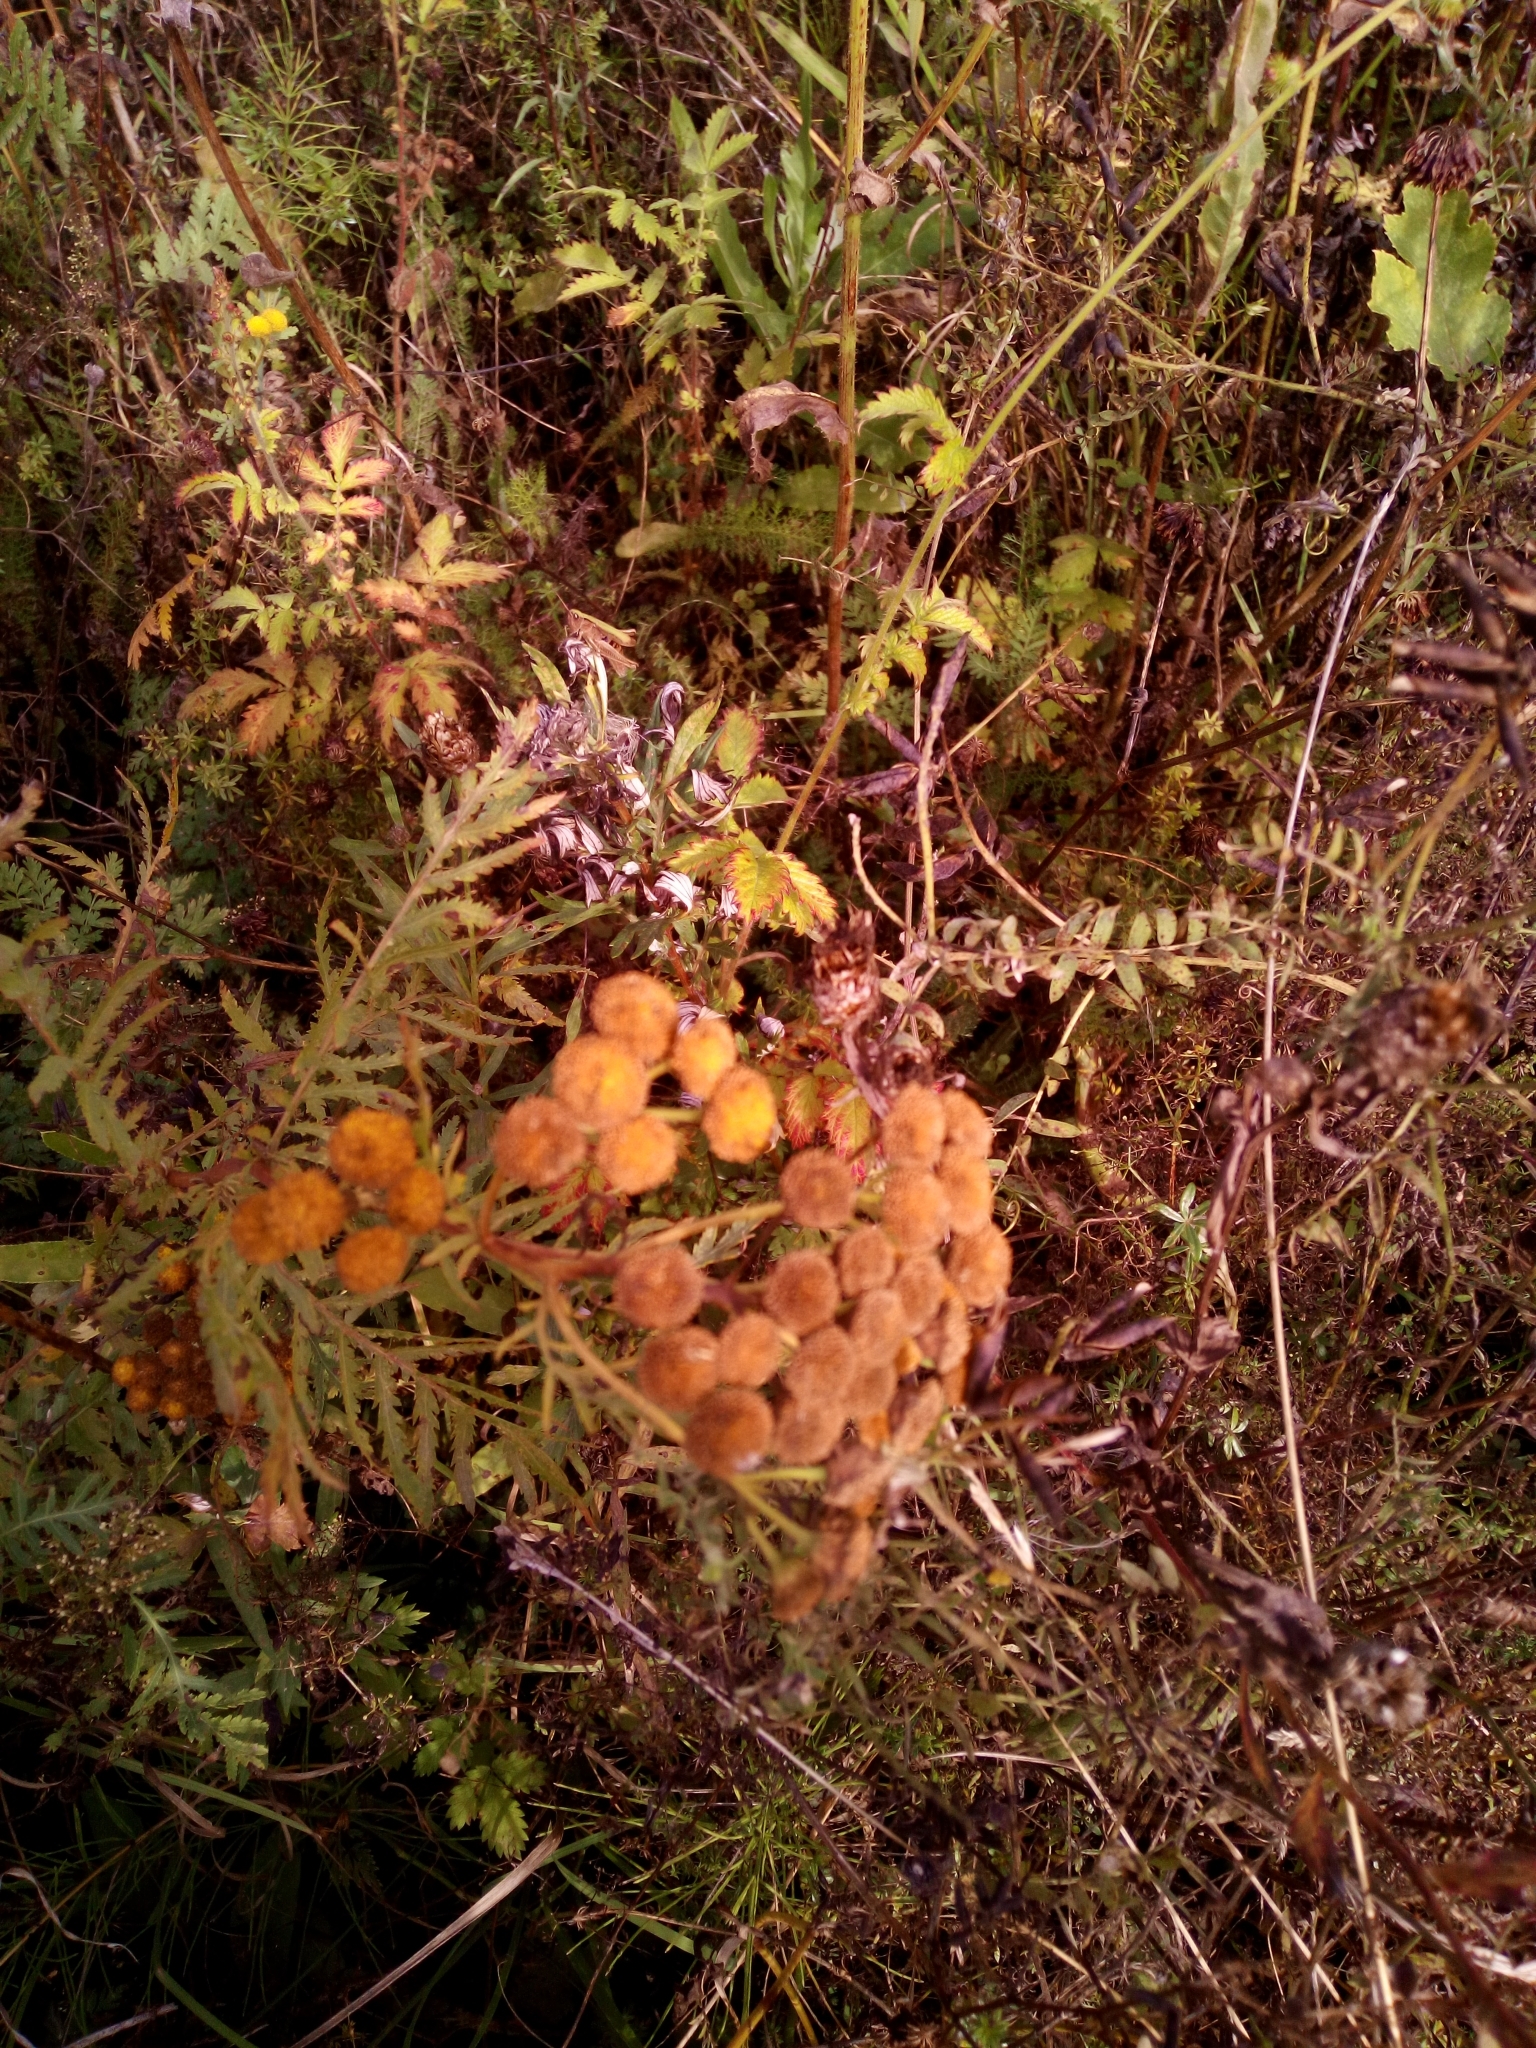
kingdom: Plantae
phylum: Tracheophyta
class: Magnoliopsida
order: Asterales
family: Asteraceae
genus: Tanacetum
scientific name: Tanacetum vulgare
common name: Common tansy
